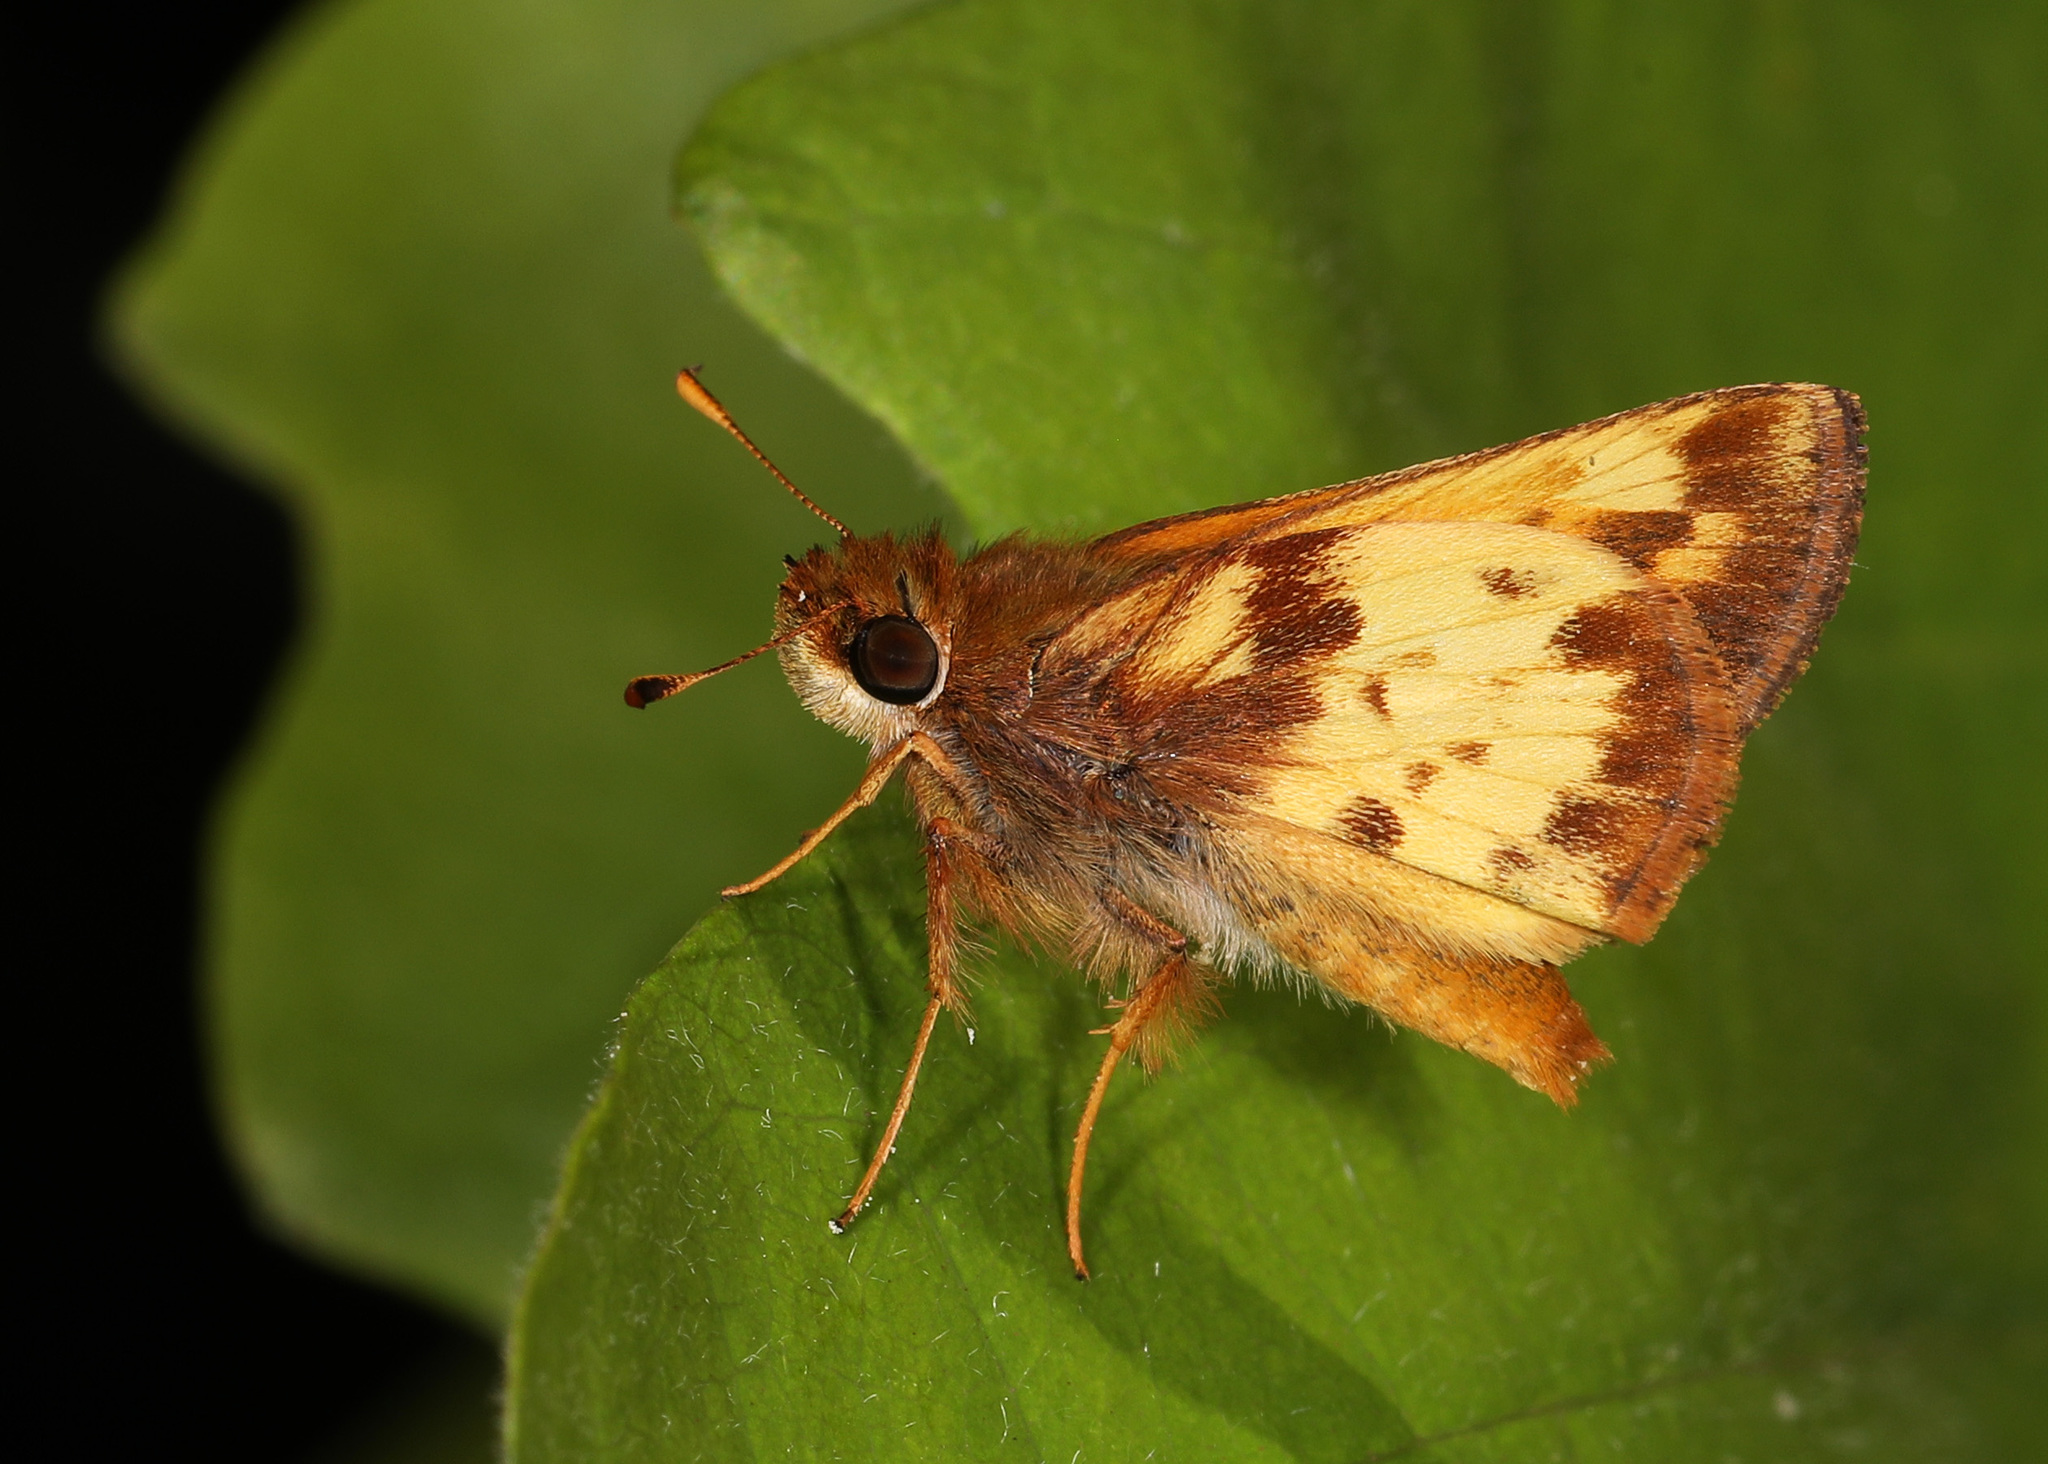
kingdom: Animalia
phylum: Arthropoda
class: Insecta
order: Lepidoptera
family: Hesperiidae
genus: Lon
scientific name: Lon zabulon
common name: Zabulon skipper
